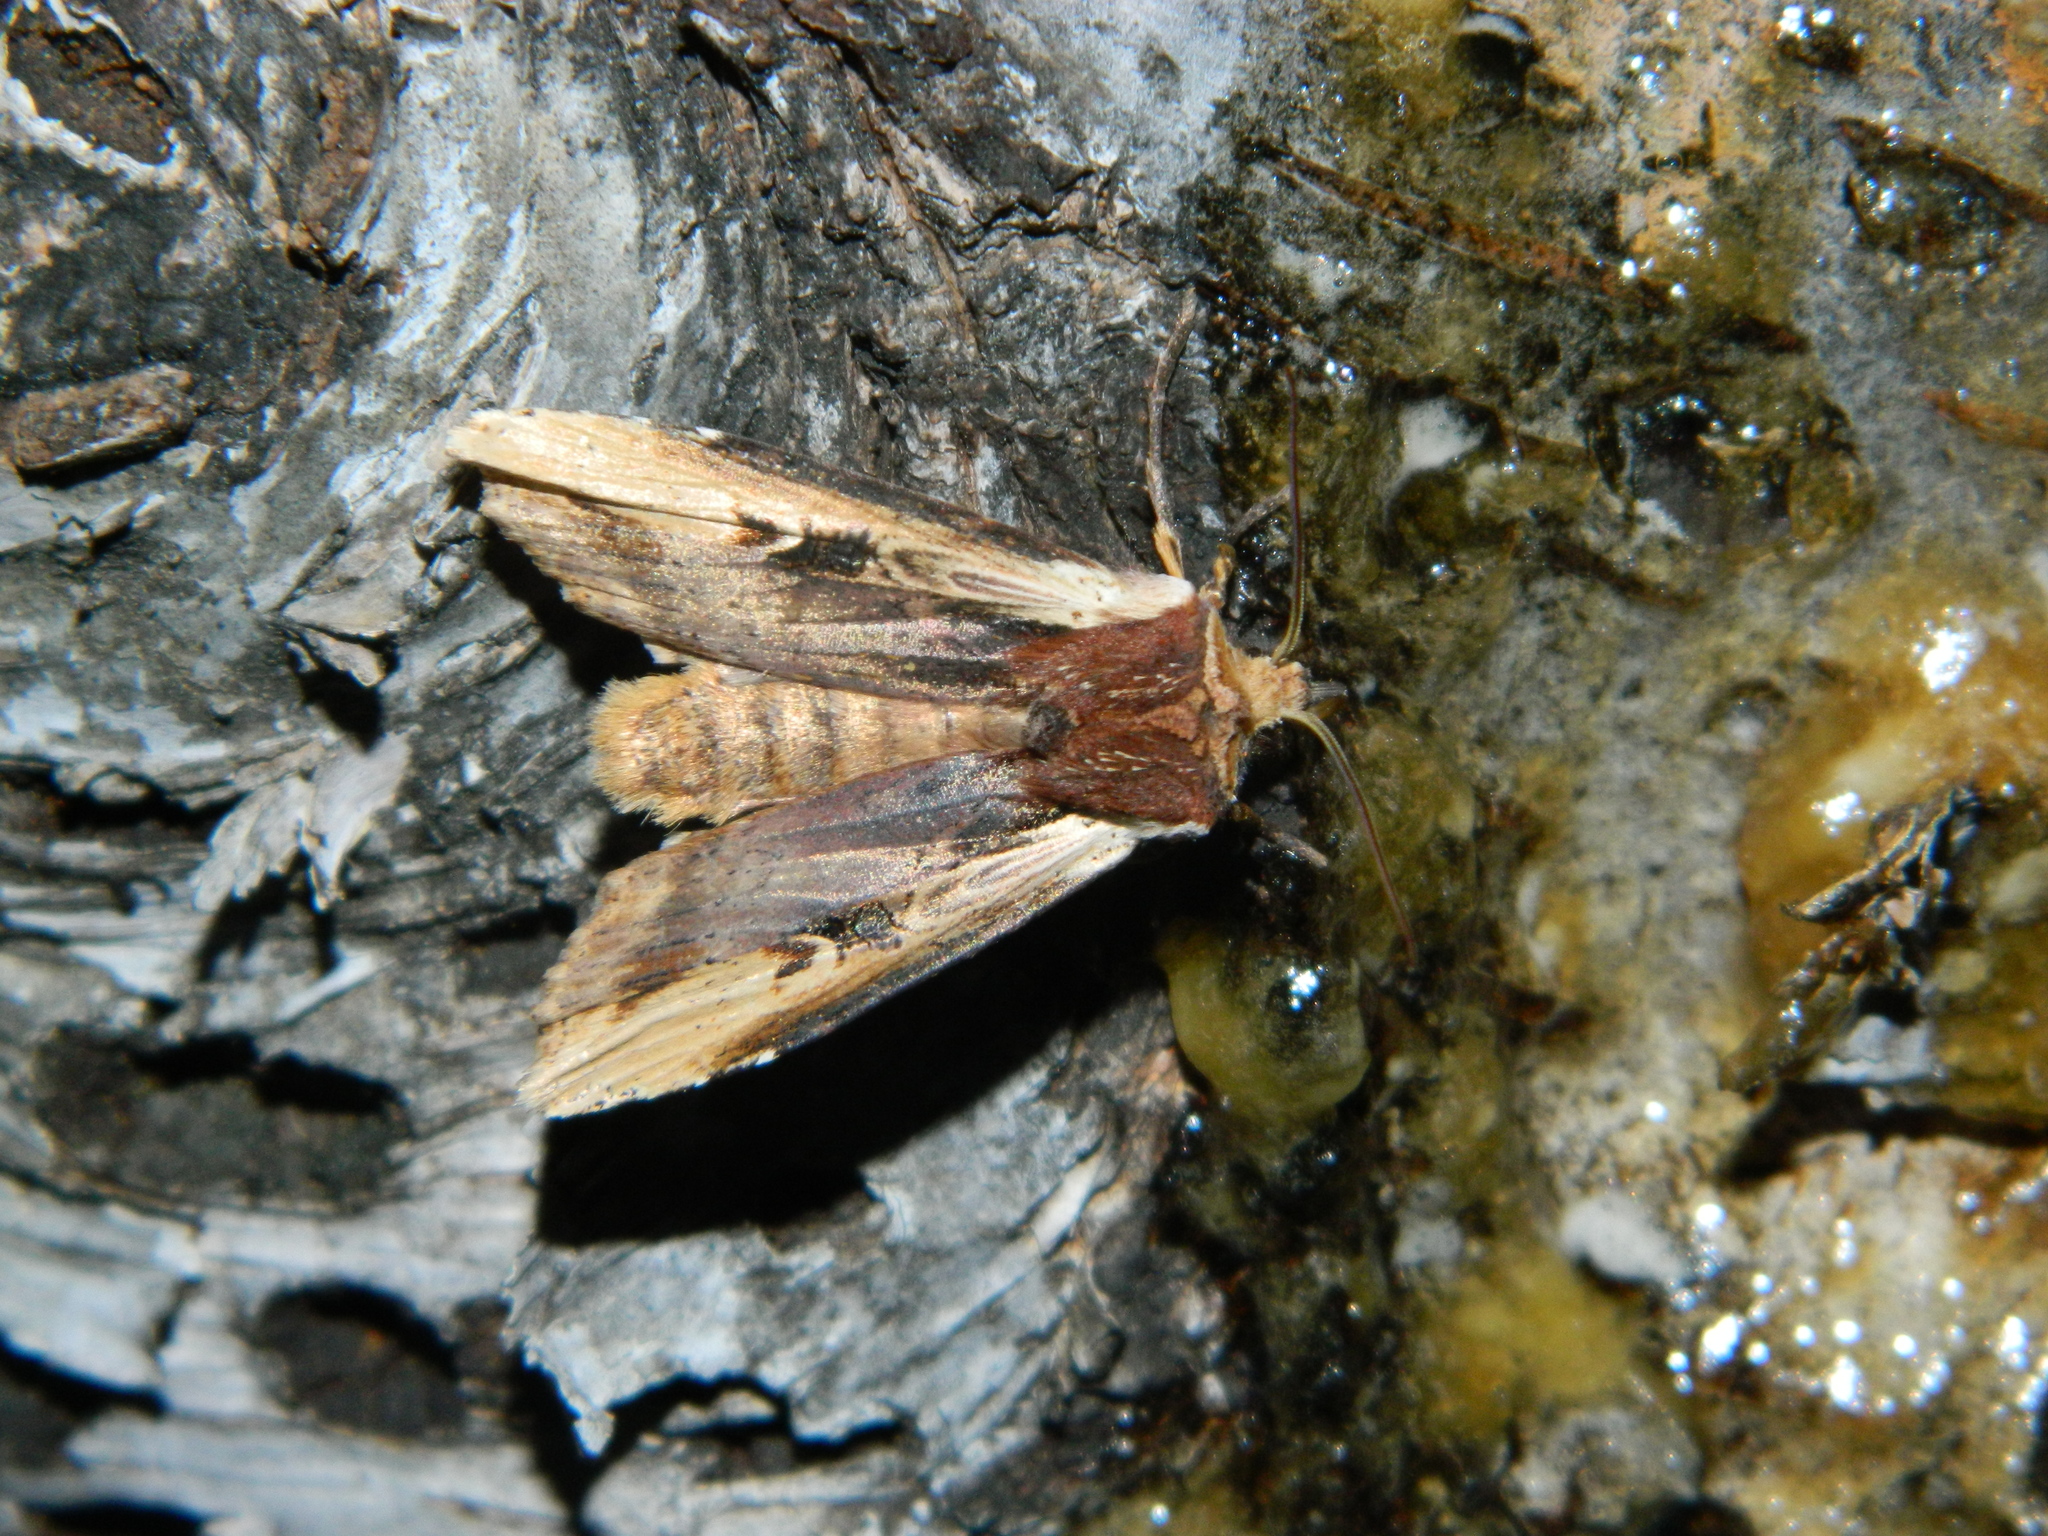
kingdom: Animalia
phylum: Arthropoda
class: Insecta
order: Lepidoptera
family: Noctuidae
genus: Xylena
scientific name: Xylena curvimacula
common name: Dot-and-dash swordgrass moth
